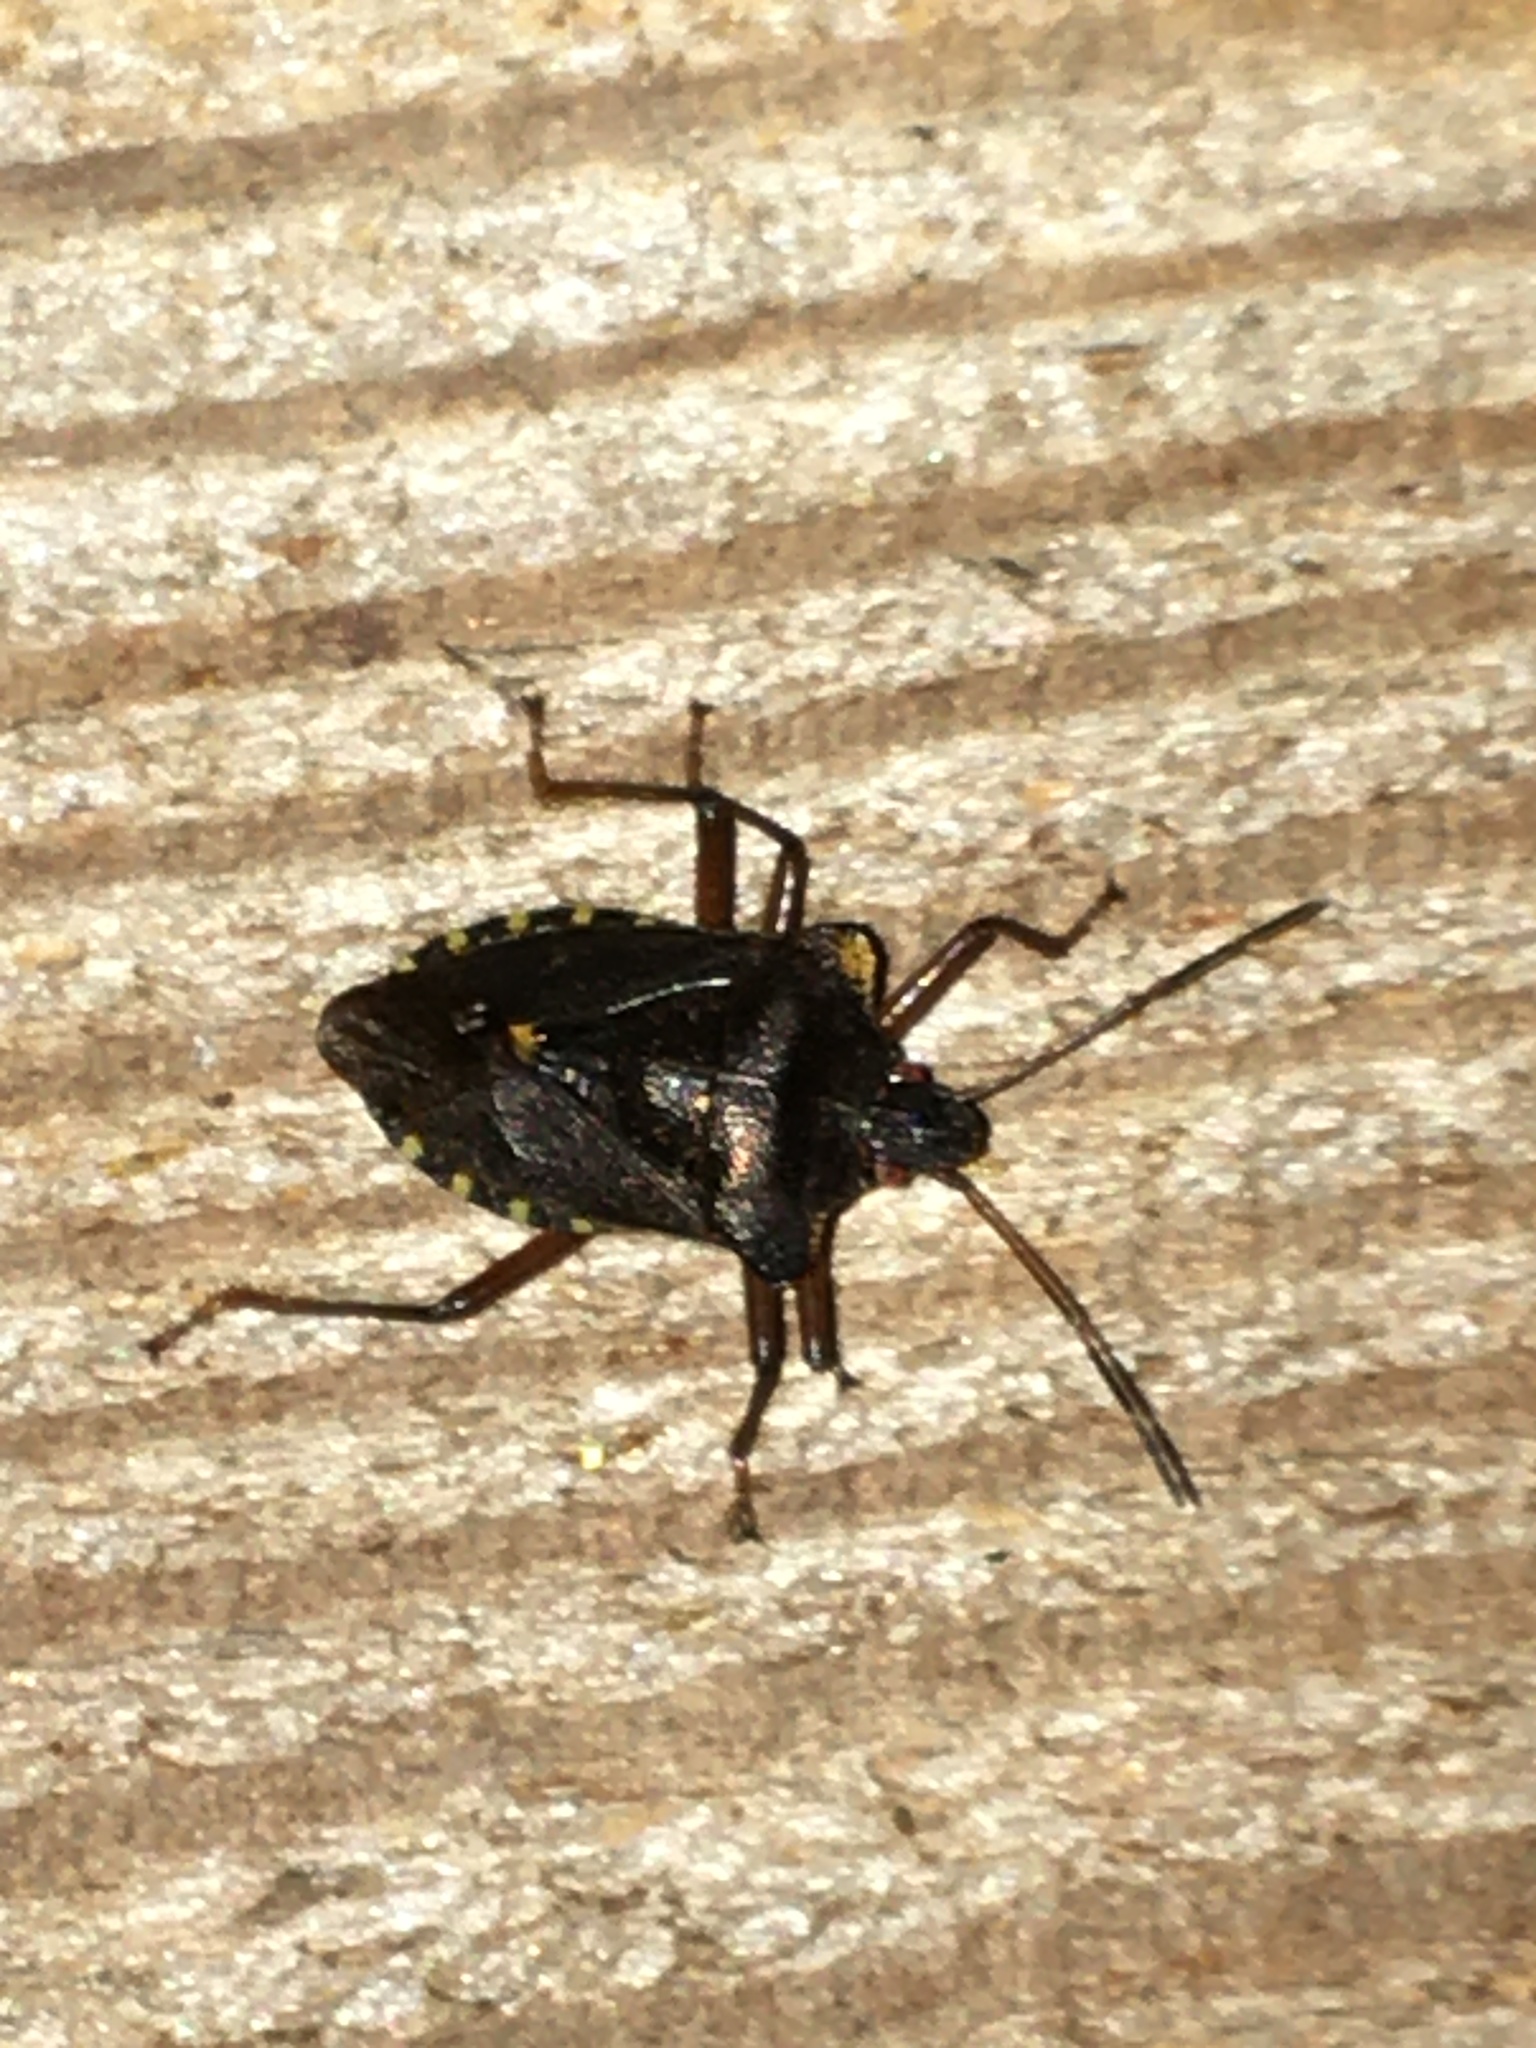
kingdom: Animalia
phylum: Arthropoda
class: Insecta
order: Hemiptera
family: Pentatomidae
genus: Pentatoma
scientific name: Pentatoma rufipes
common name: Forest bug
